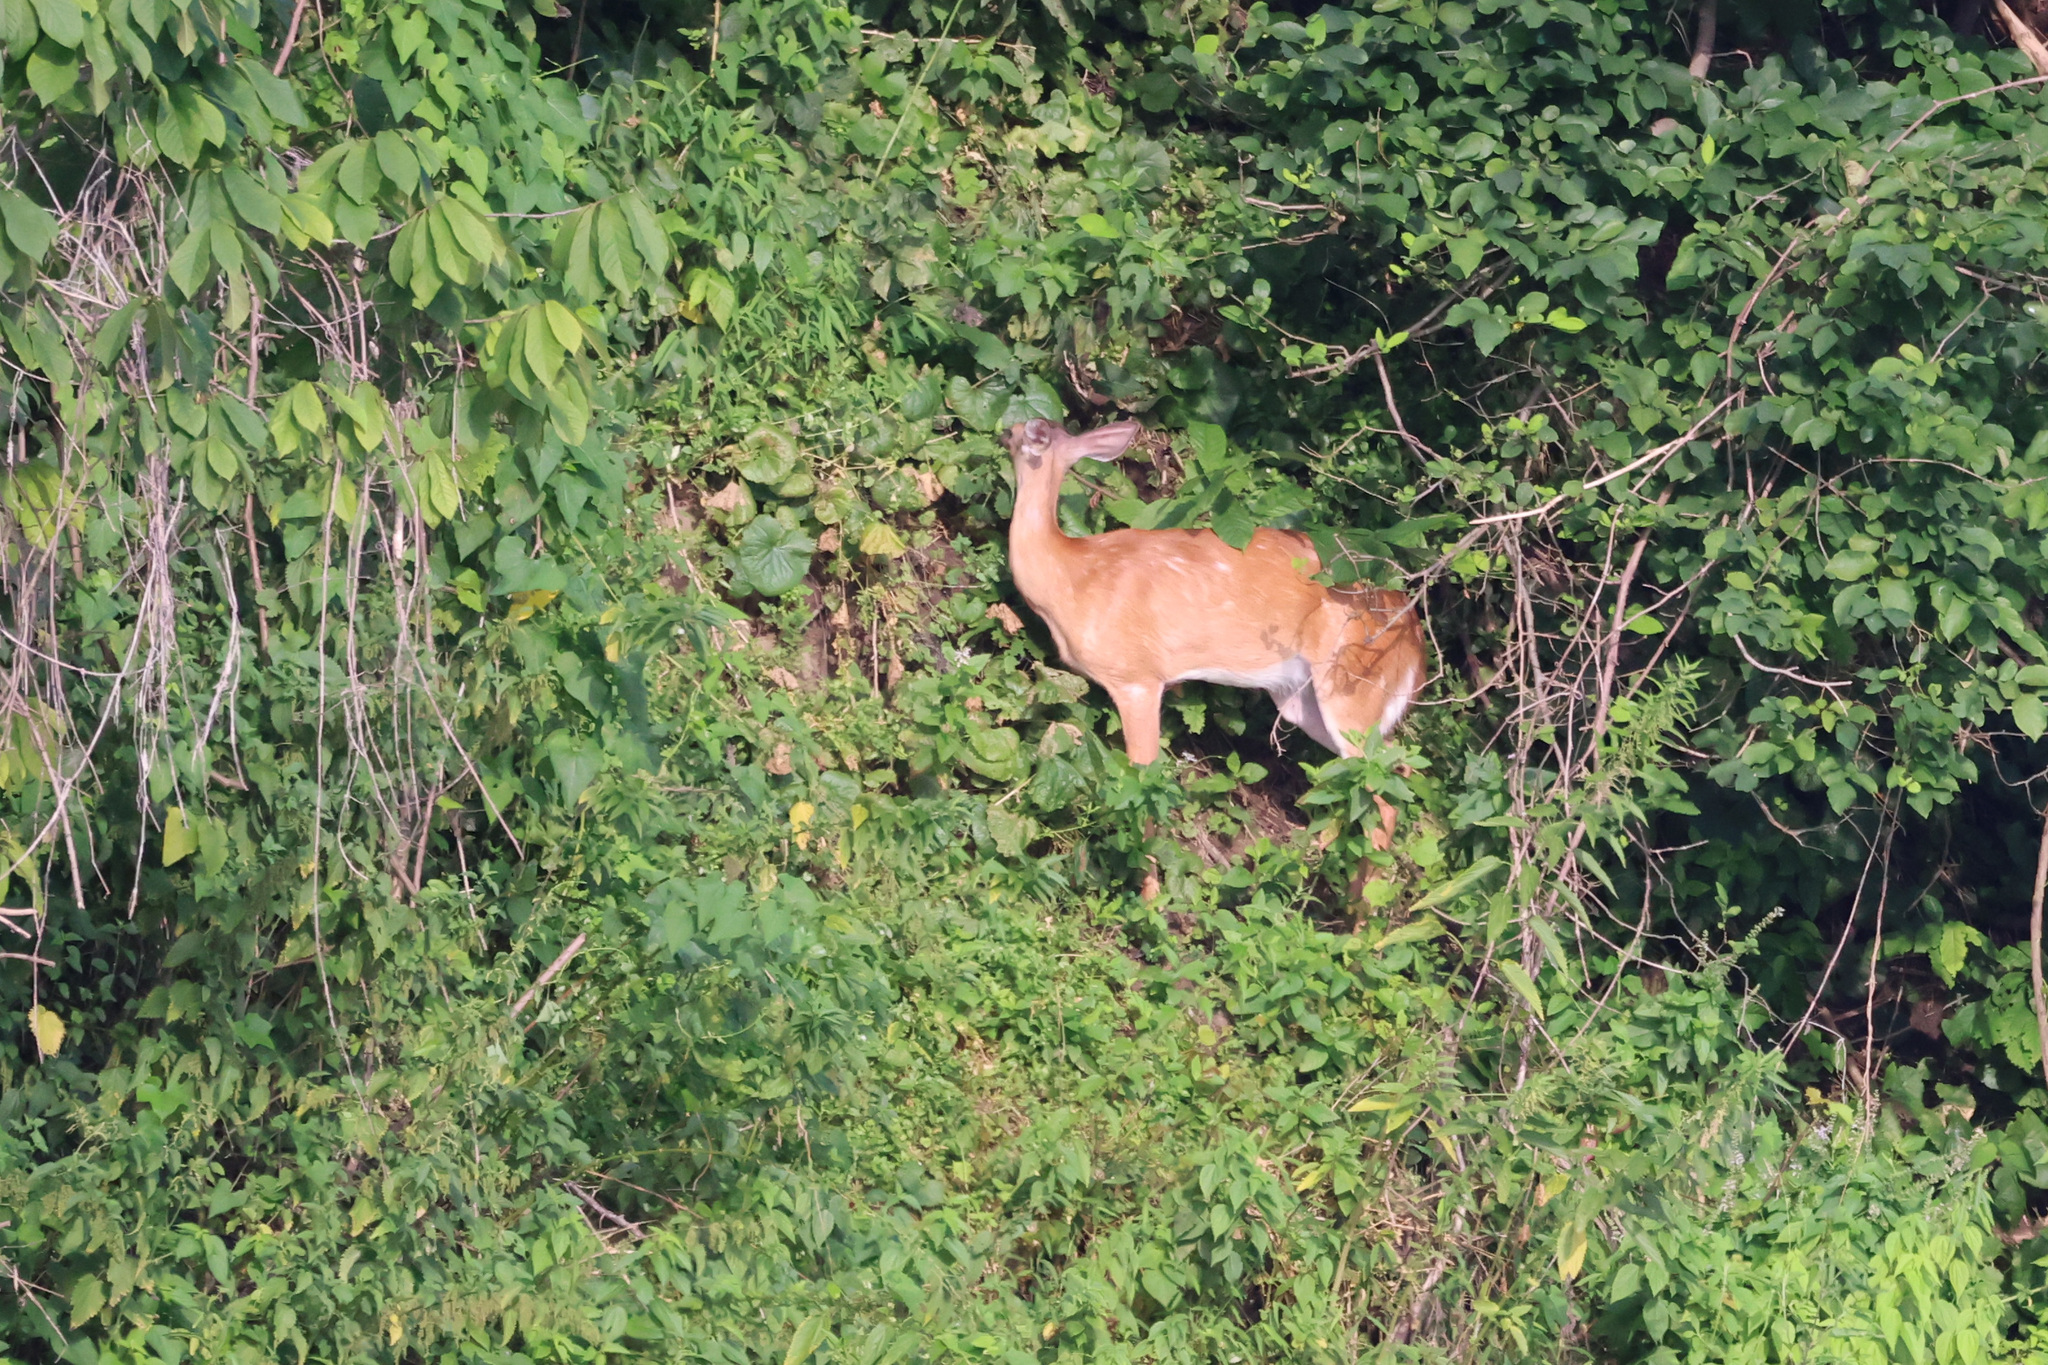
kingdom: Animalia
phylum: Chordata
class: Mammalia
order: Artiodactyla
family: Cervidae
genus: Odocoileus
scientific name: Odocoileus virginianus
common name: White-tailed deer
